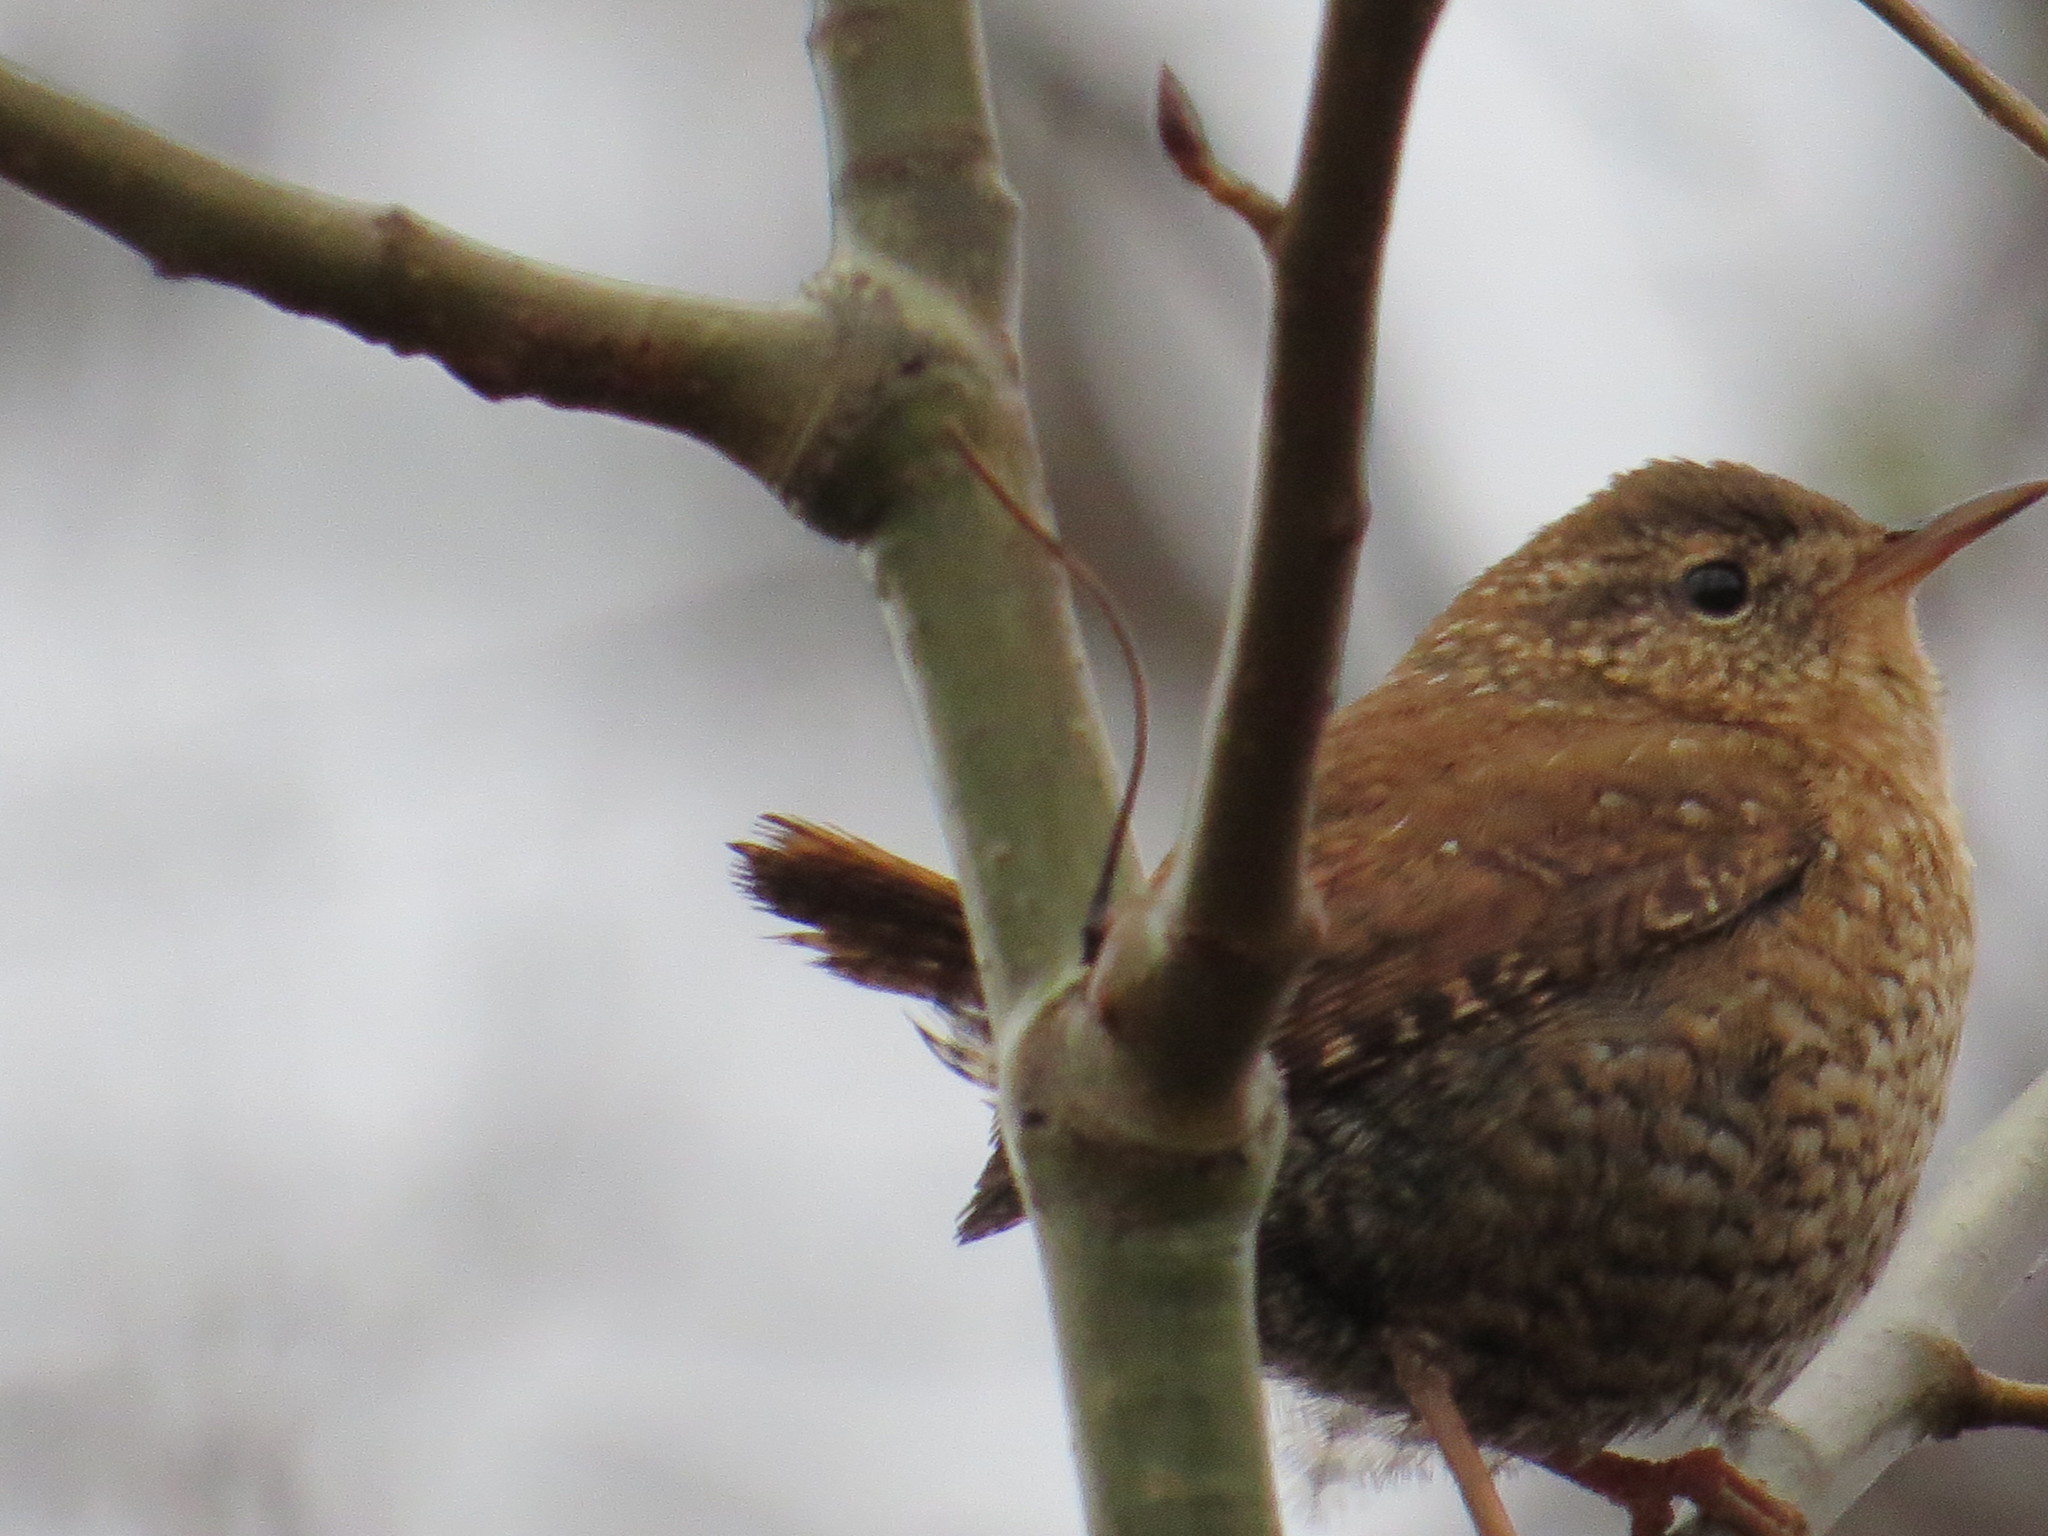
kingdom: Animalia
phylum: Chordata
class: Aves
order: Passeriformes
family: Troglodytidae
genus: Troglodytes
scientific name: Troglodytes hiemalis
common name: Winter wren
